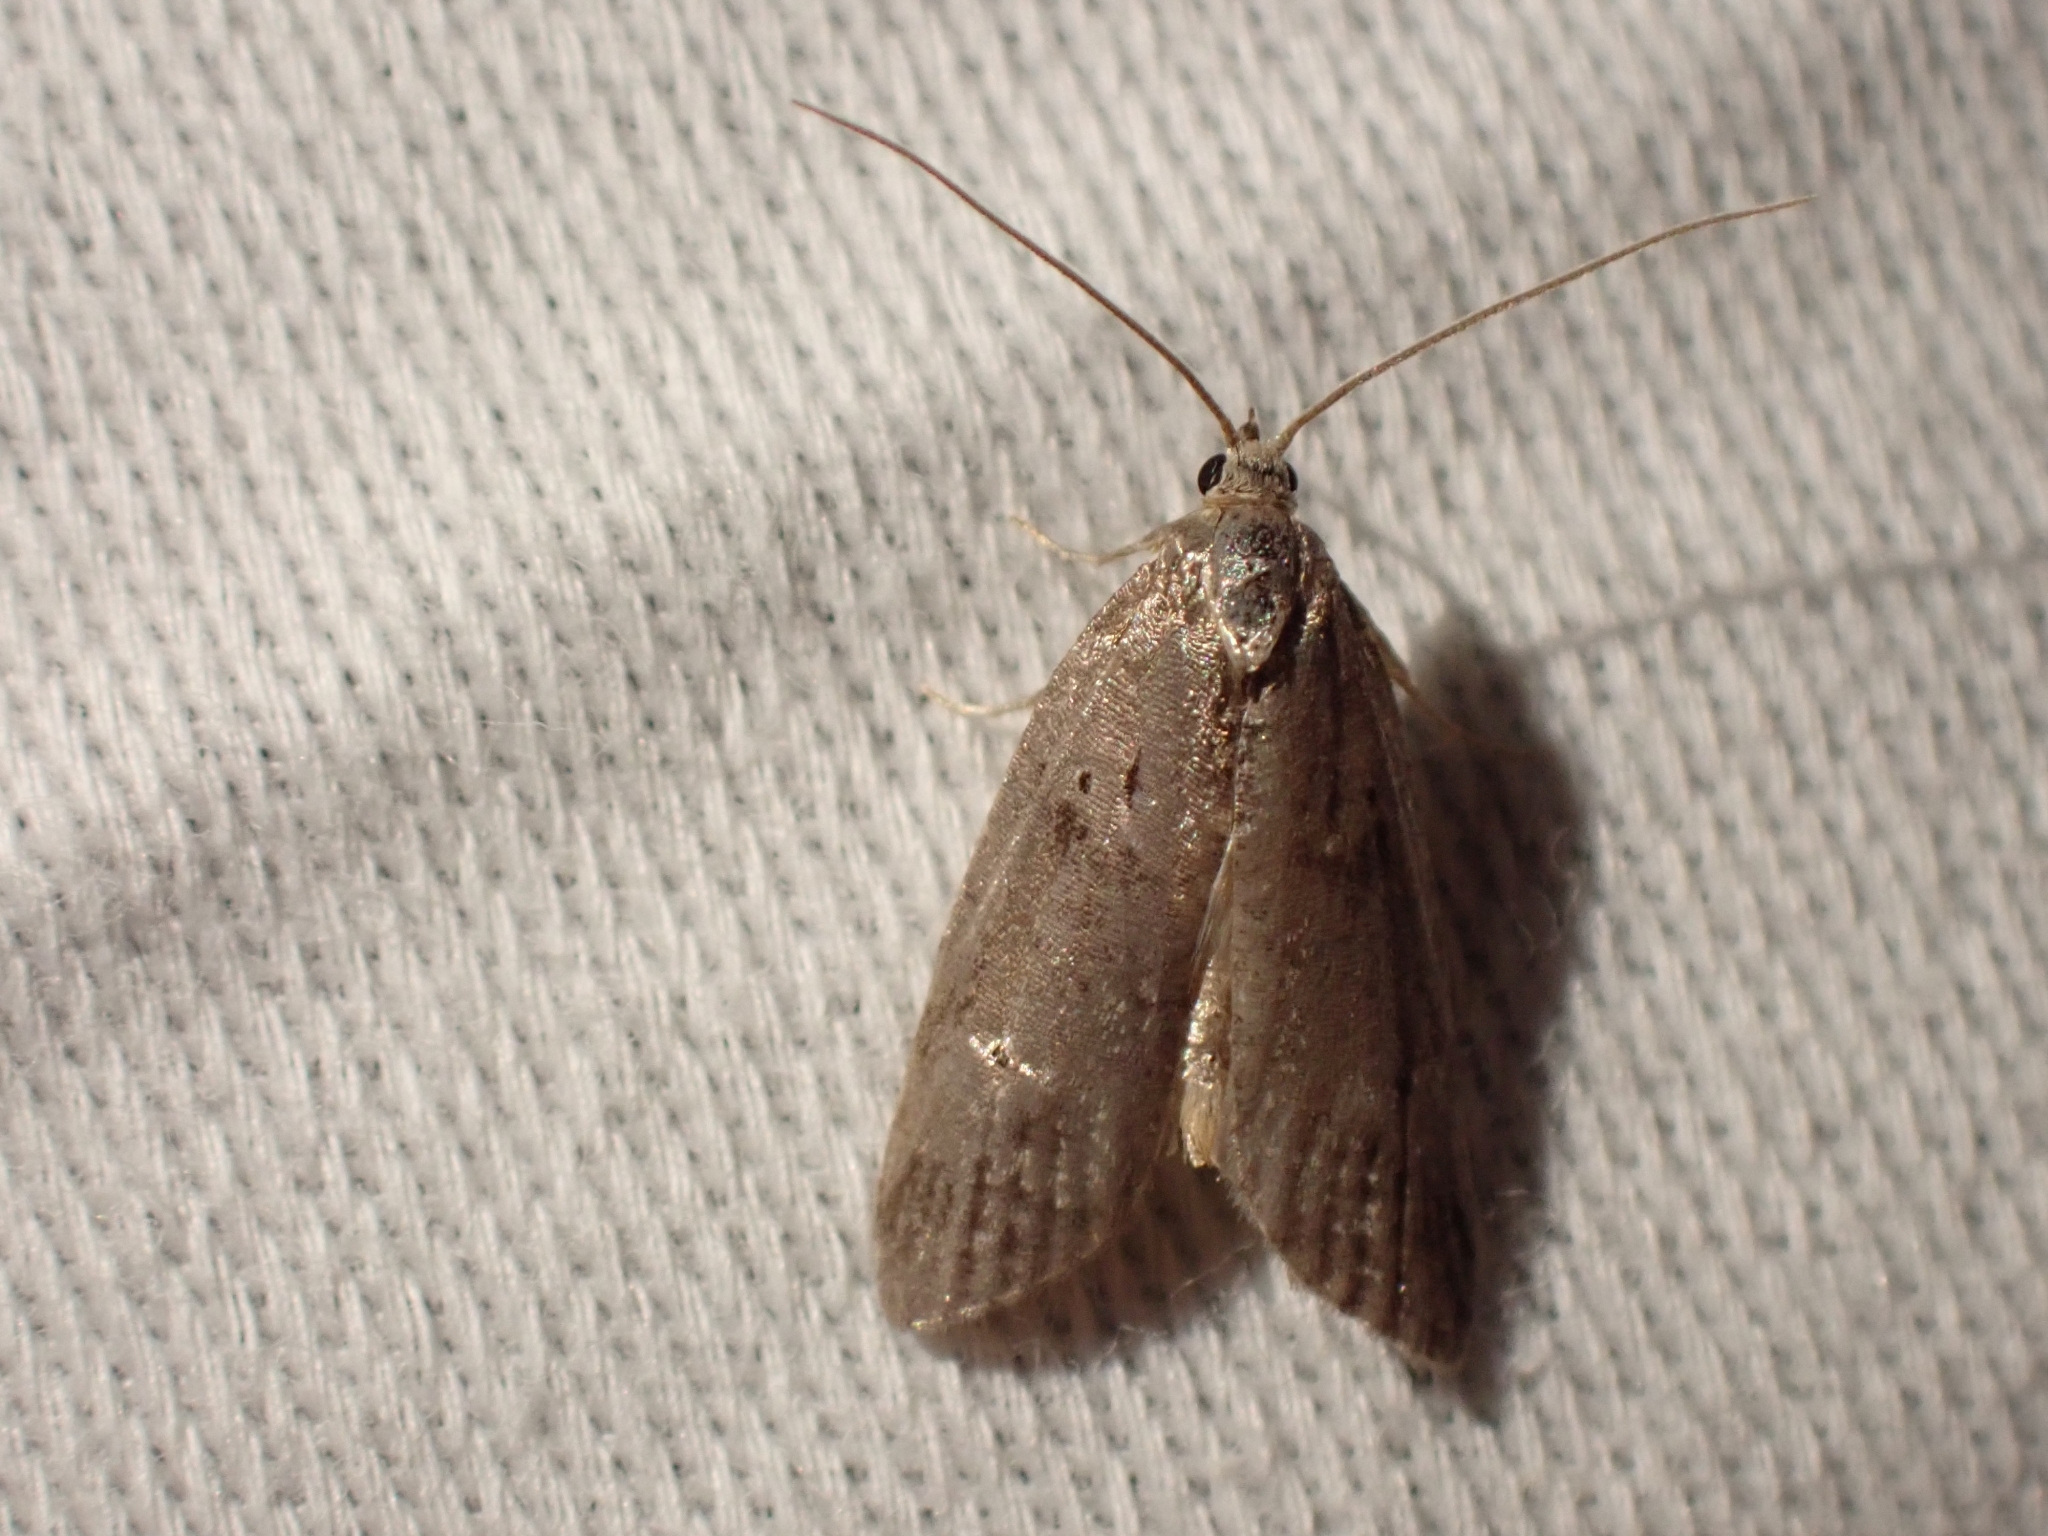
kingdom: Animalia
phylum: Arthropoda
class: Insecta
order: Lepidoptera
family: Copromorphidae
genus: Lotisma
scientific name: Lotisma trigonana
